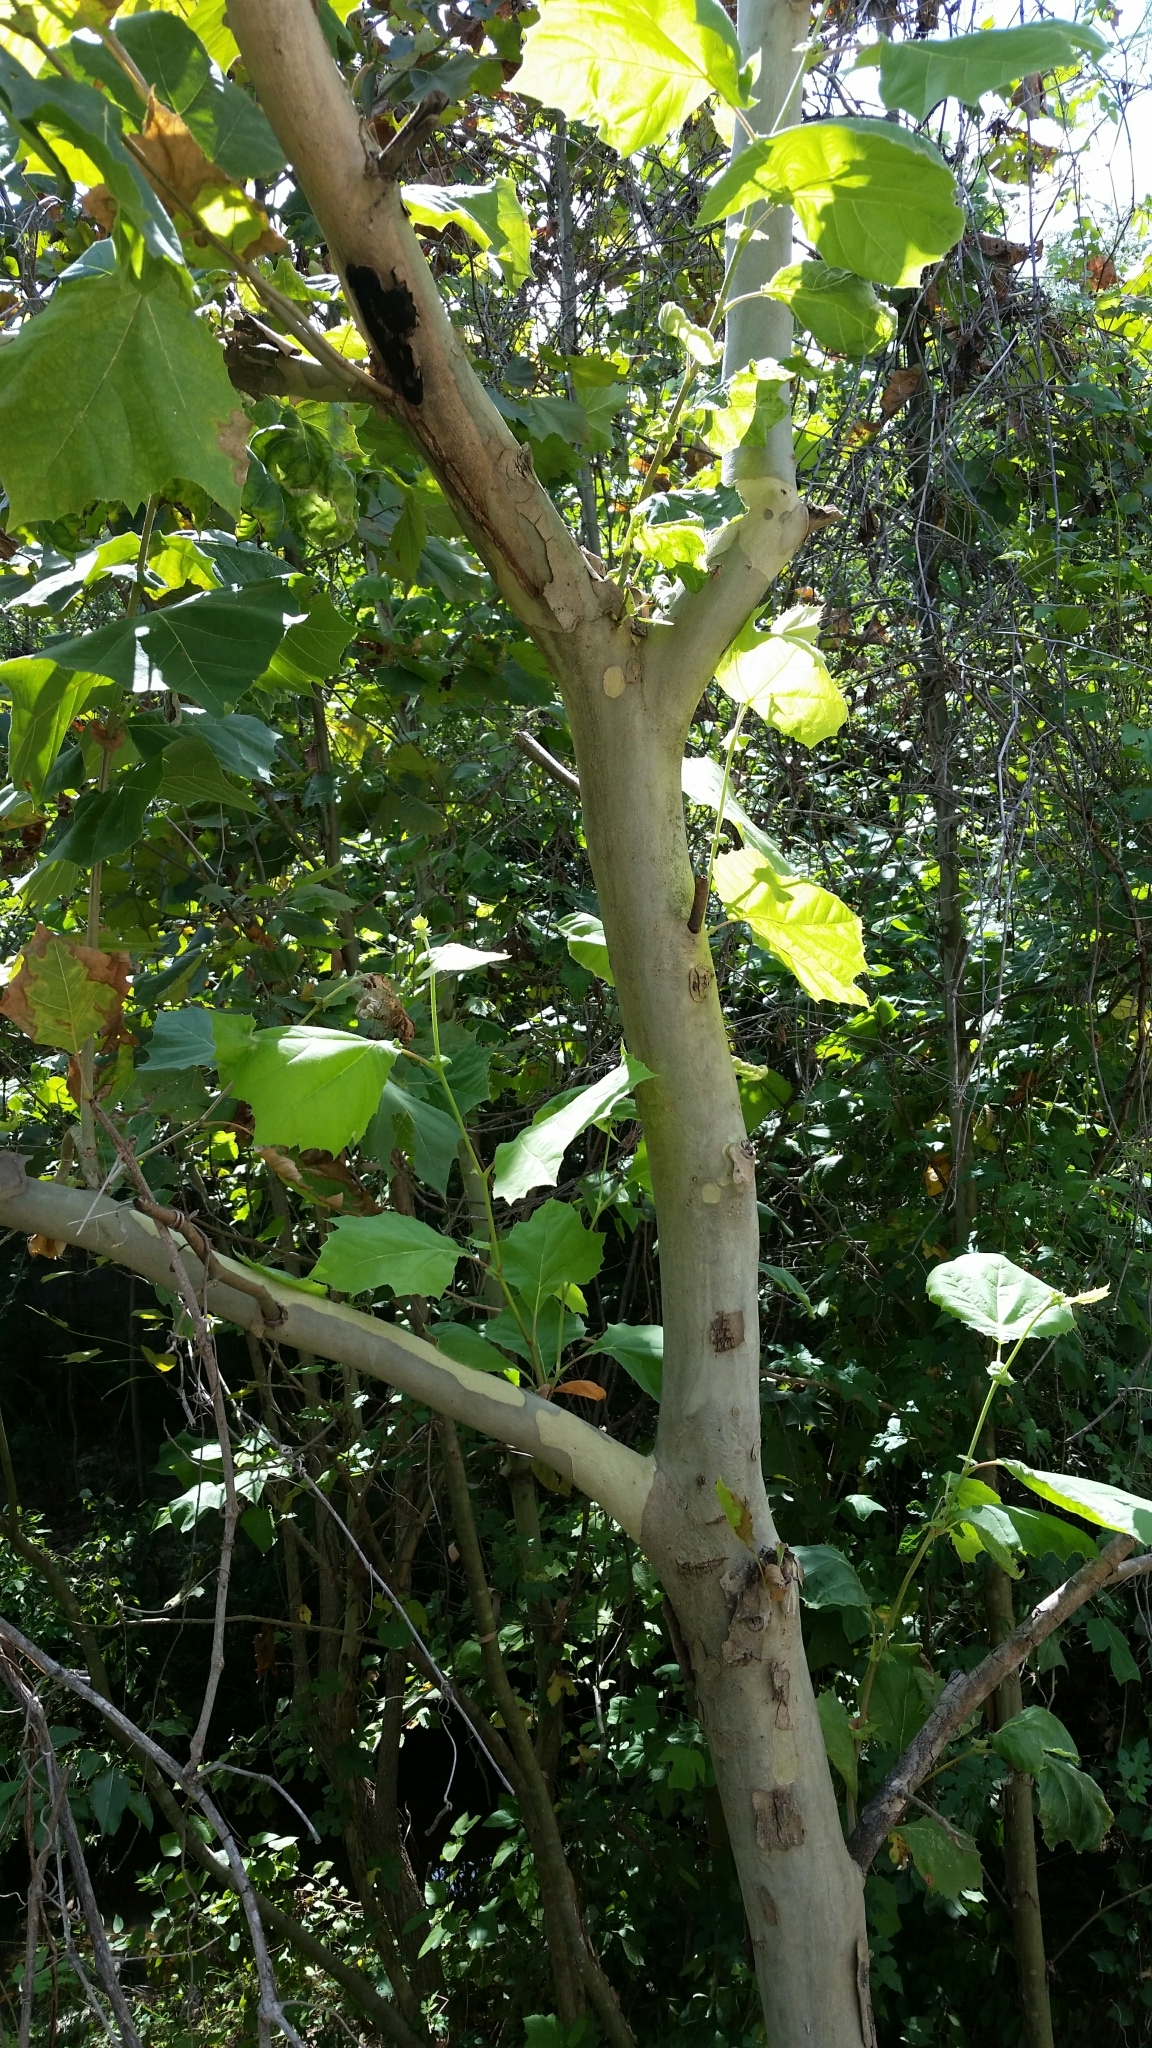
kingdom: Plantae
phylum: Tracheophyta
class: Magnoliopsida
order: Proteales
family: Platanaceae
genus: Platanus
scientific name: Platanus occidentalis
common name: American sycamore
